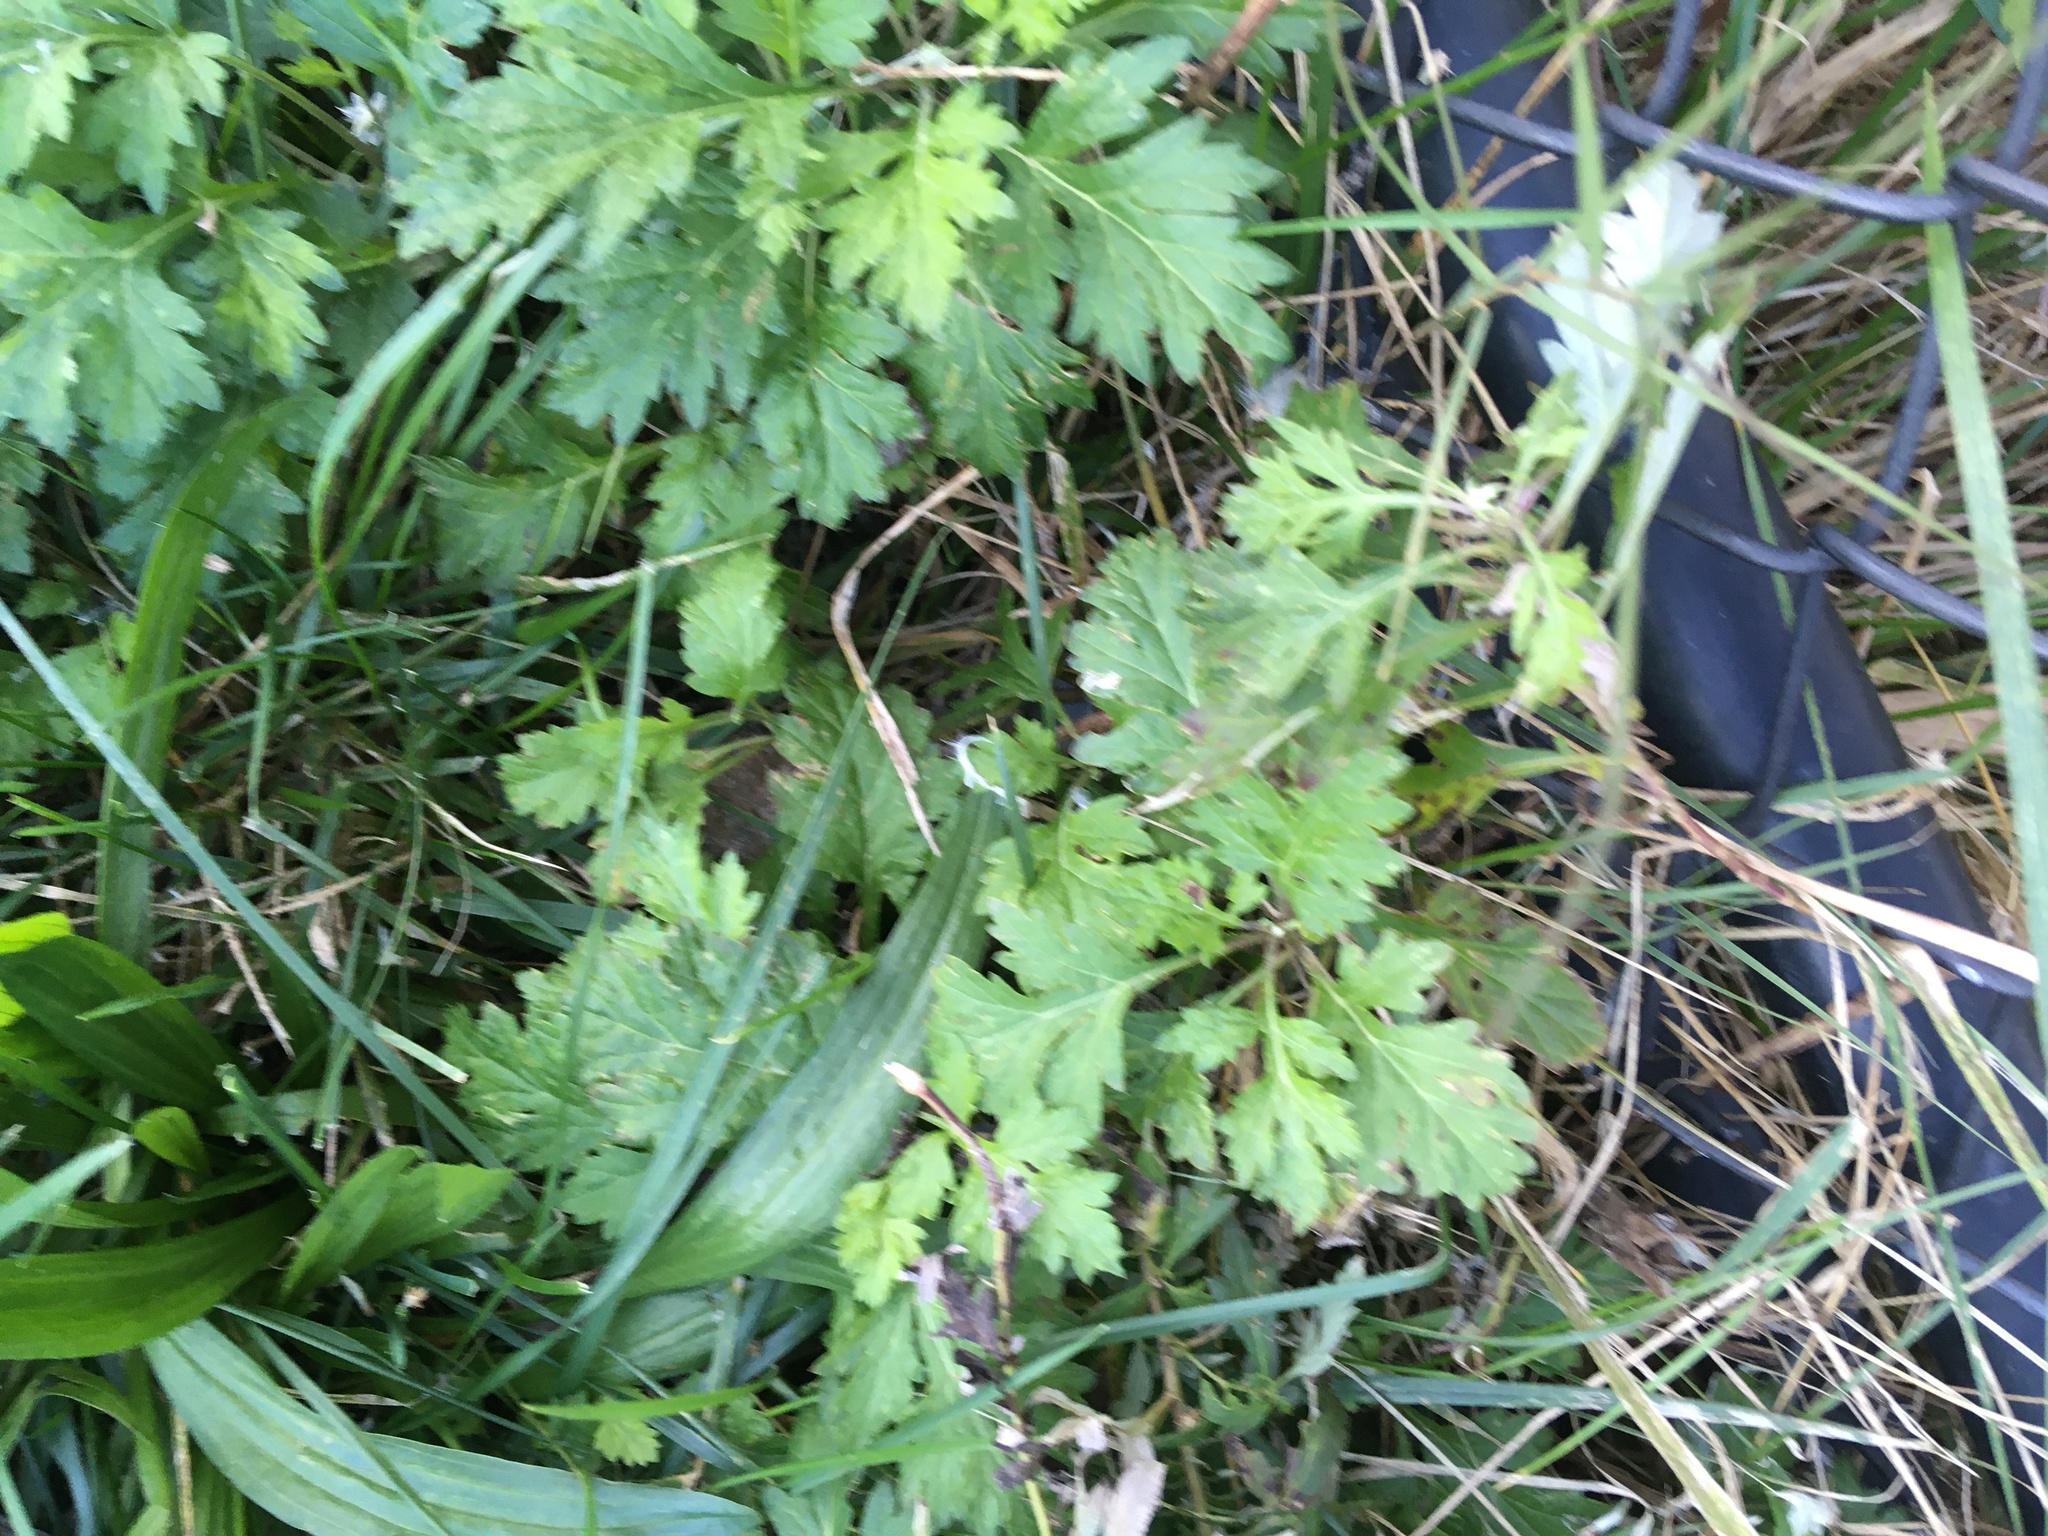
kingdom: Plantae
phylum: Tracheophyta
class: Magnoliopsida
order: Asterales
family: Asteraceae
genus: Artemisia
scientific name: Artemisia vulgaris
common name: Mugwort
